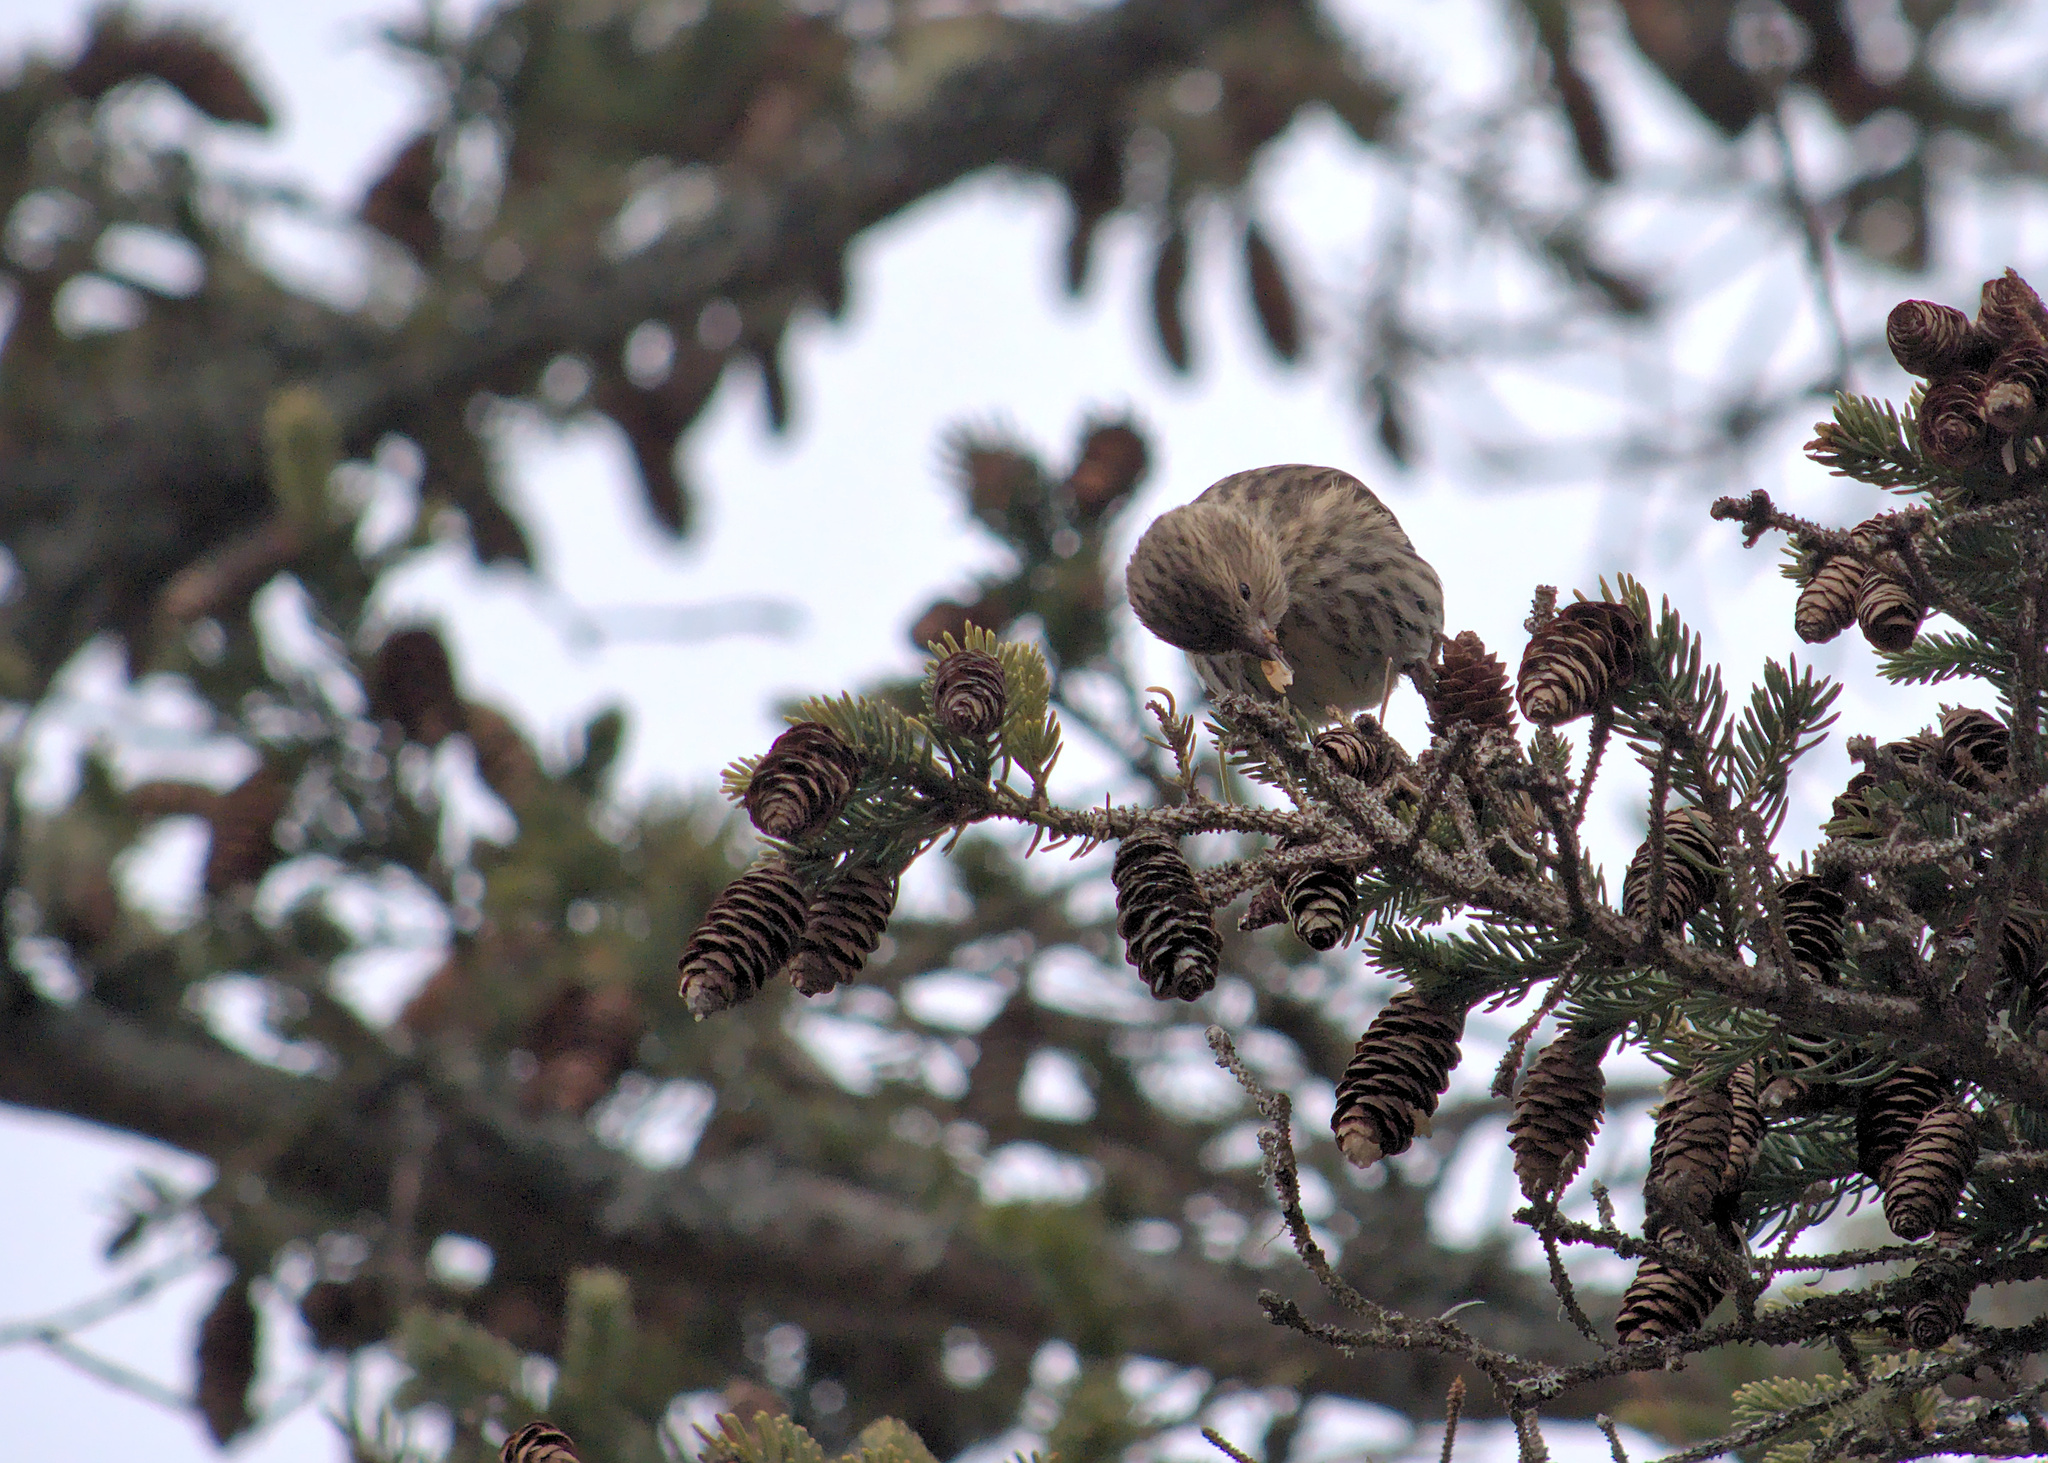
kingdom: Animalia
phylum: Chordata
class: Aves
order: Passeriformes
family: Fringillidae
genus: Spinus
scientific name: Spinus pinus
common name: Pine siskin
